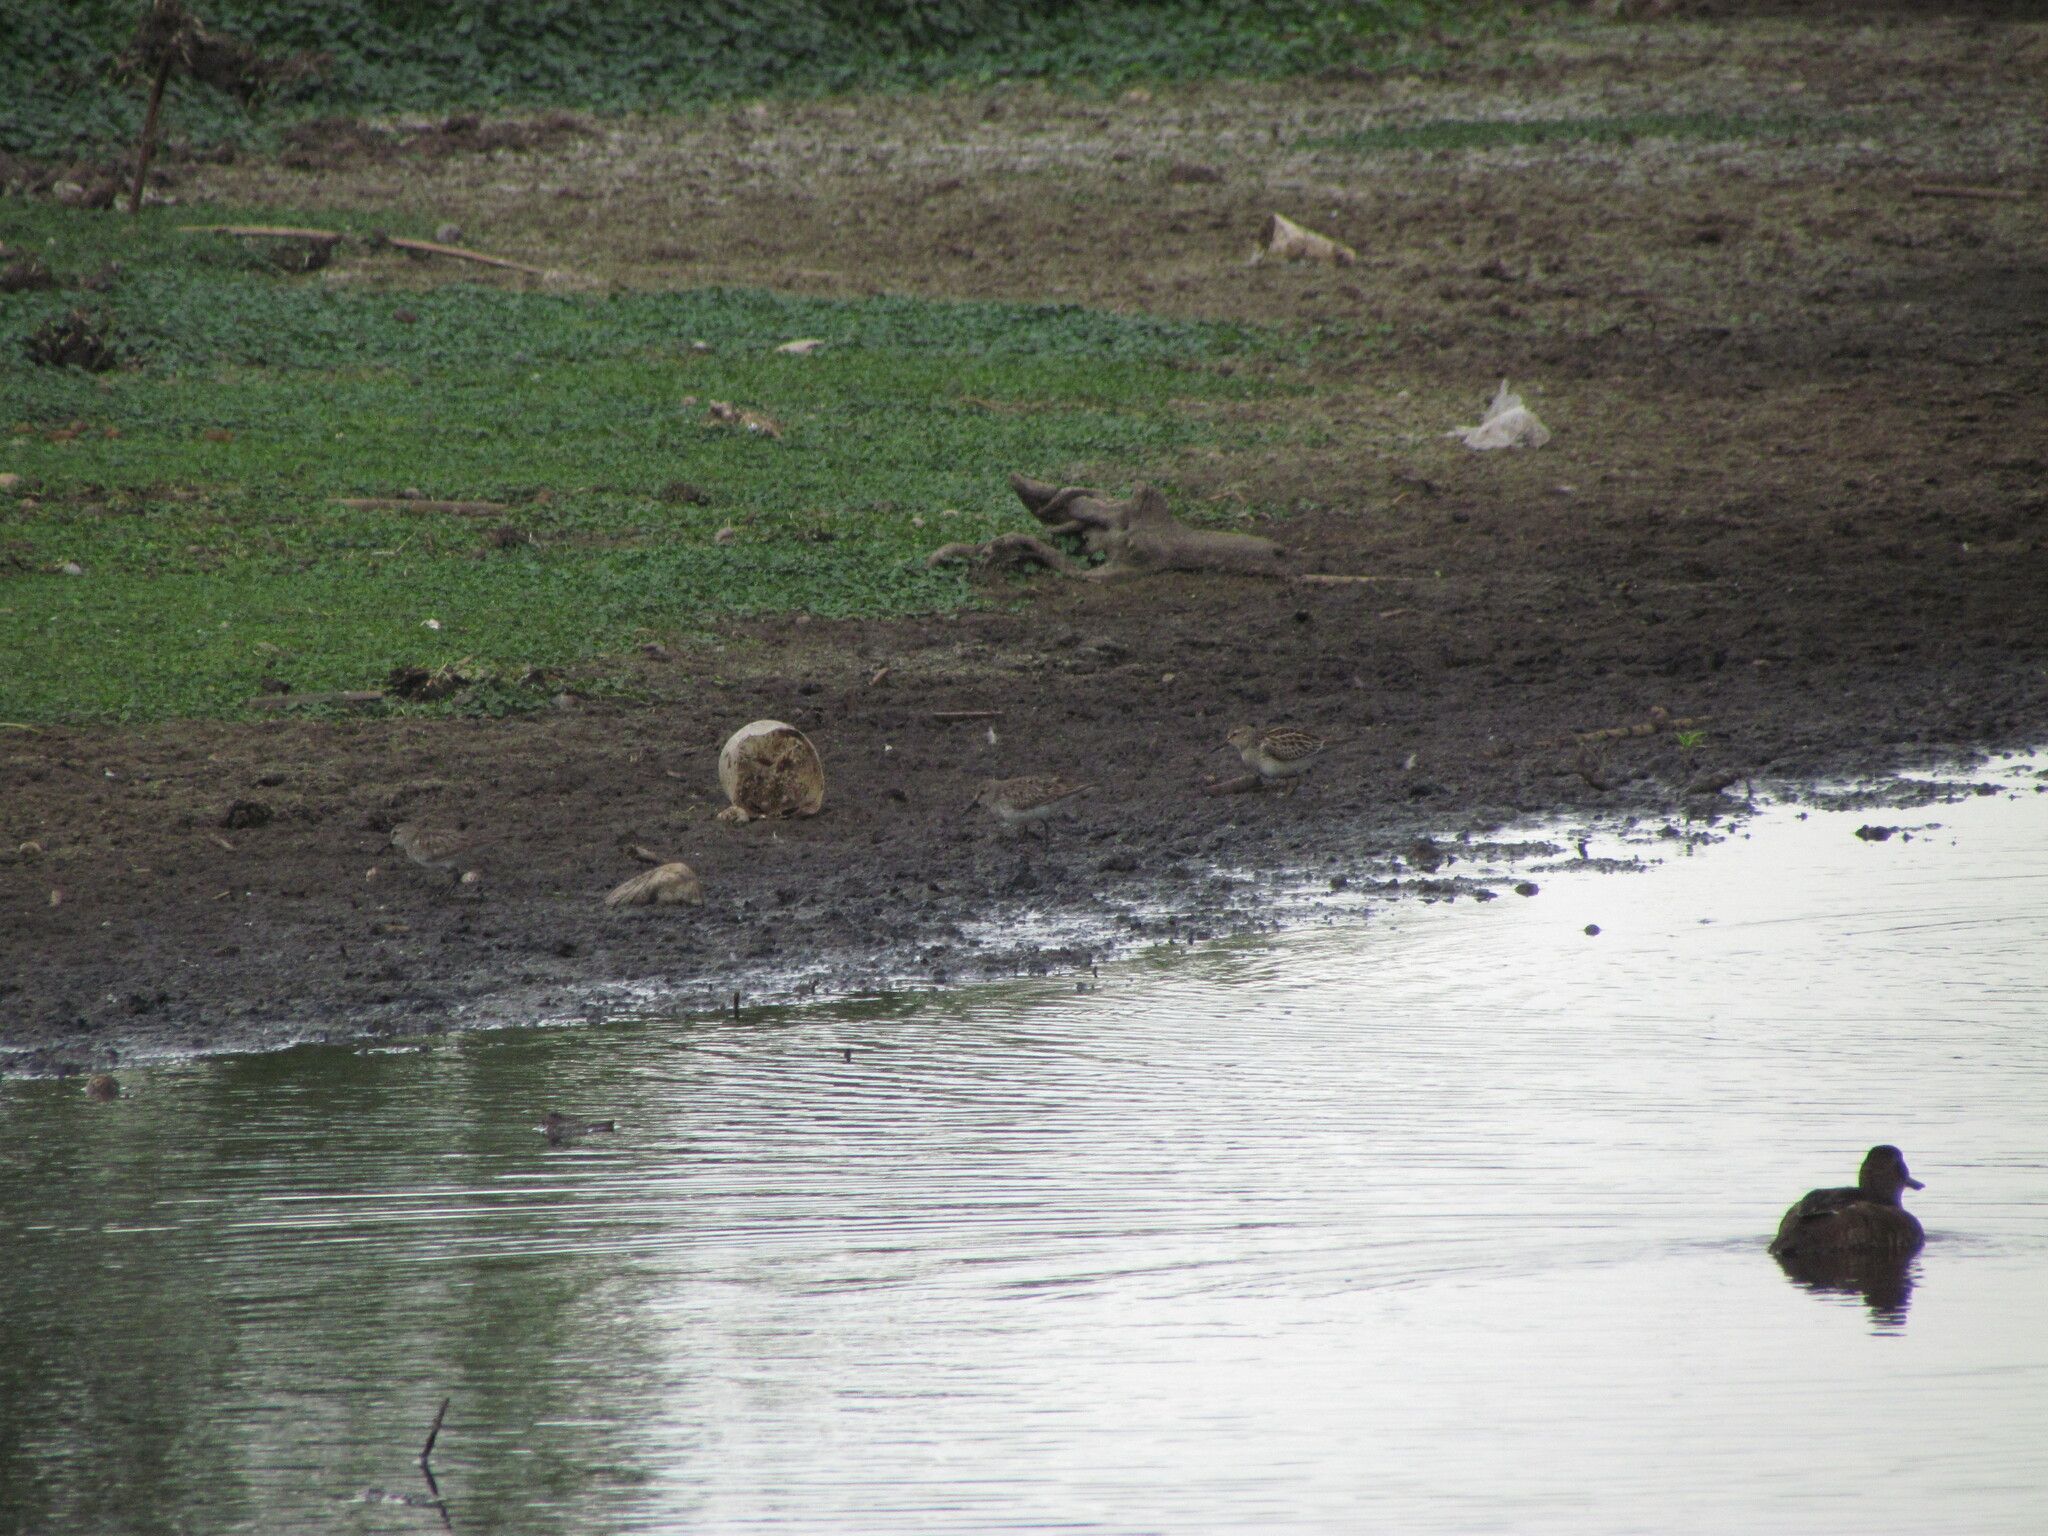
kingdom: Animalia
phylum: Chordata
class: Aves
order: Charadriiformes
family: Scolopacidae
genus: Calidris
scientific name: Calidris bairdii
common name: Baird's sandpiper
